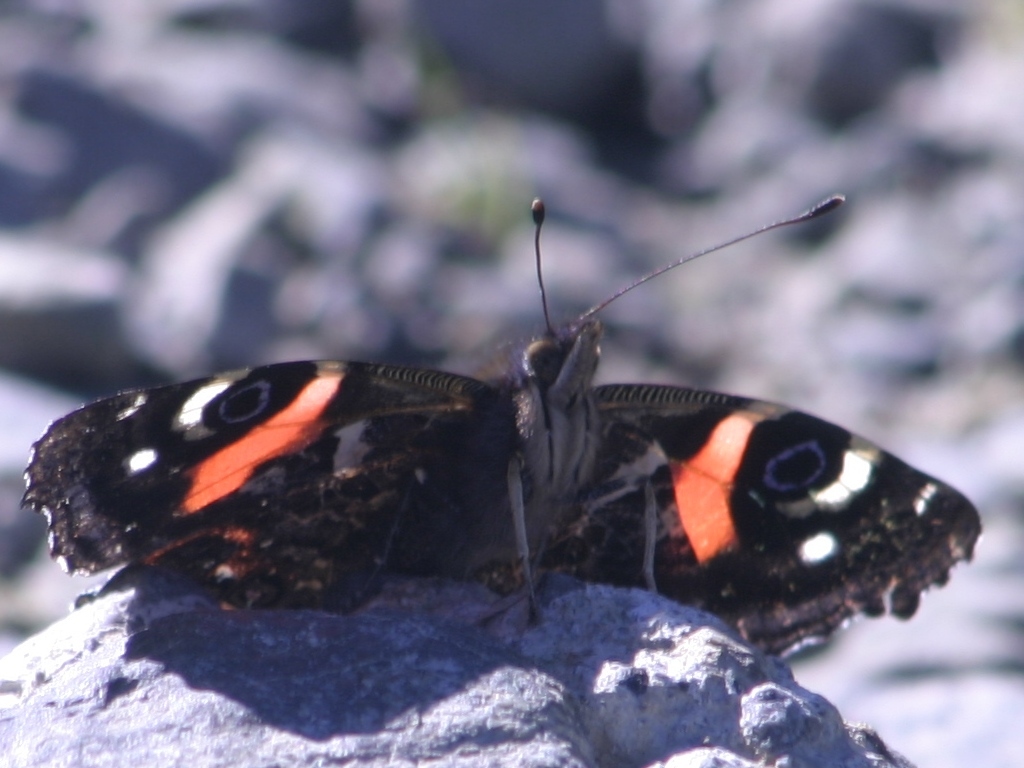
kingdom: Animalia
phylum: Arthropoda
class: Insecta
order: Lepidoptera
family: Nymphalidae
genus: Vanessa
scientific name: Vanessa gonerilla
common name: New zealand red admiral
